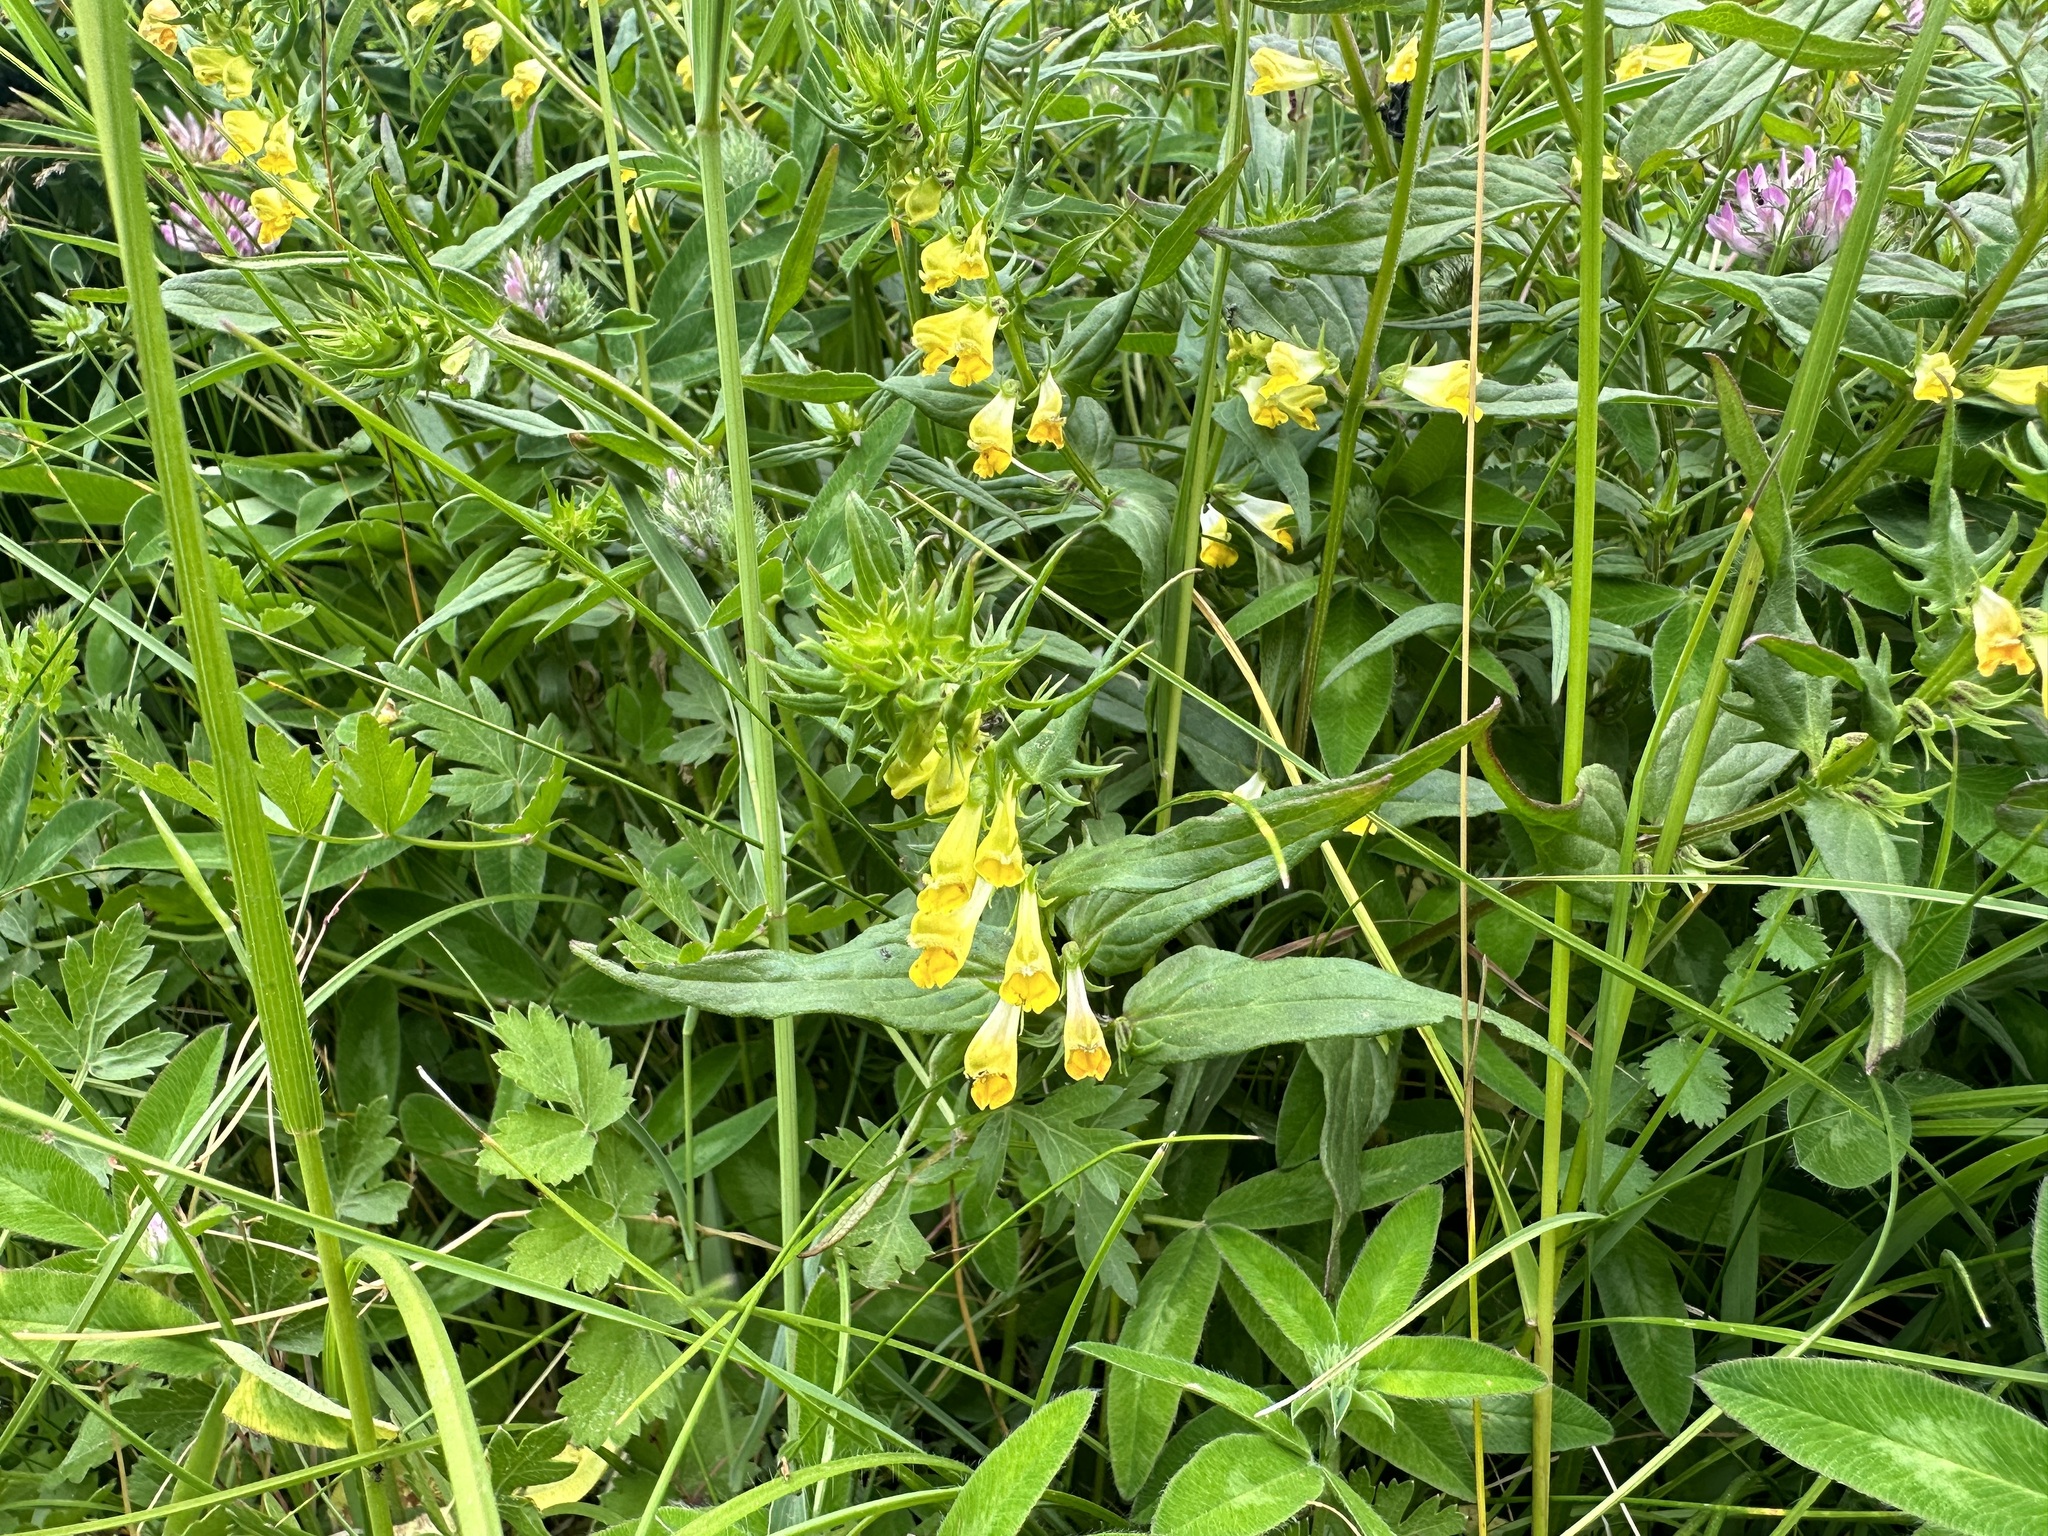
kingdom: Plantae
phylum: Tracheophyta
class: Magnoliopsida
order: Lamiales
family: Orobanchaceae
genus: Melampyrum
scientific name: Melampyrum pratense
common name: Common cow-wheat
